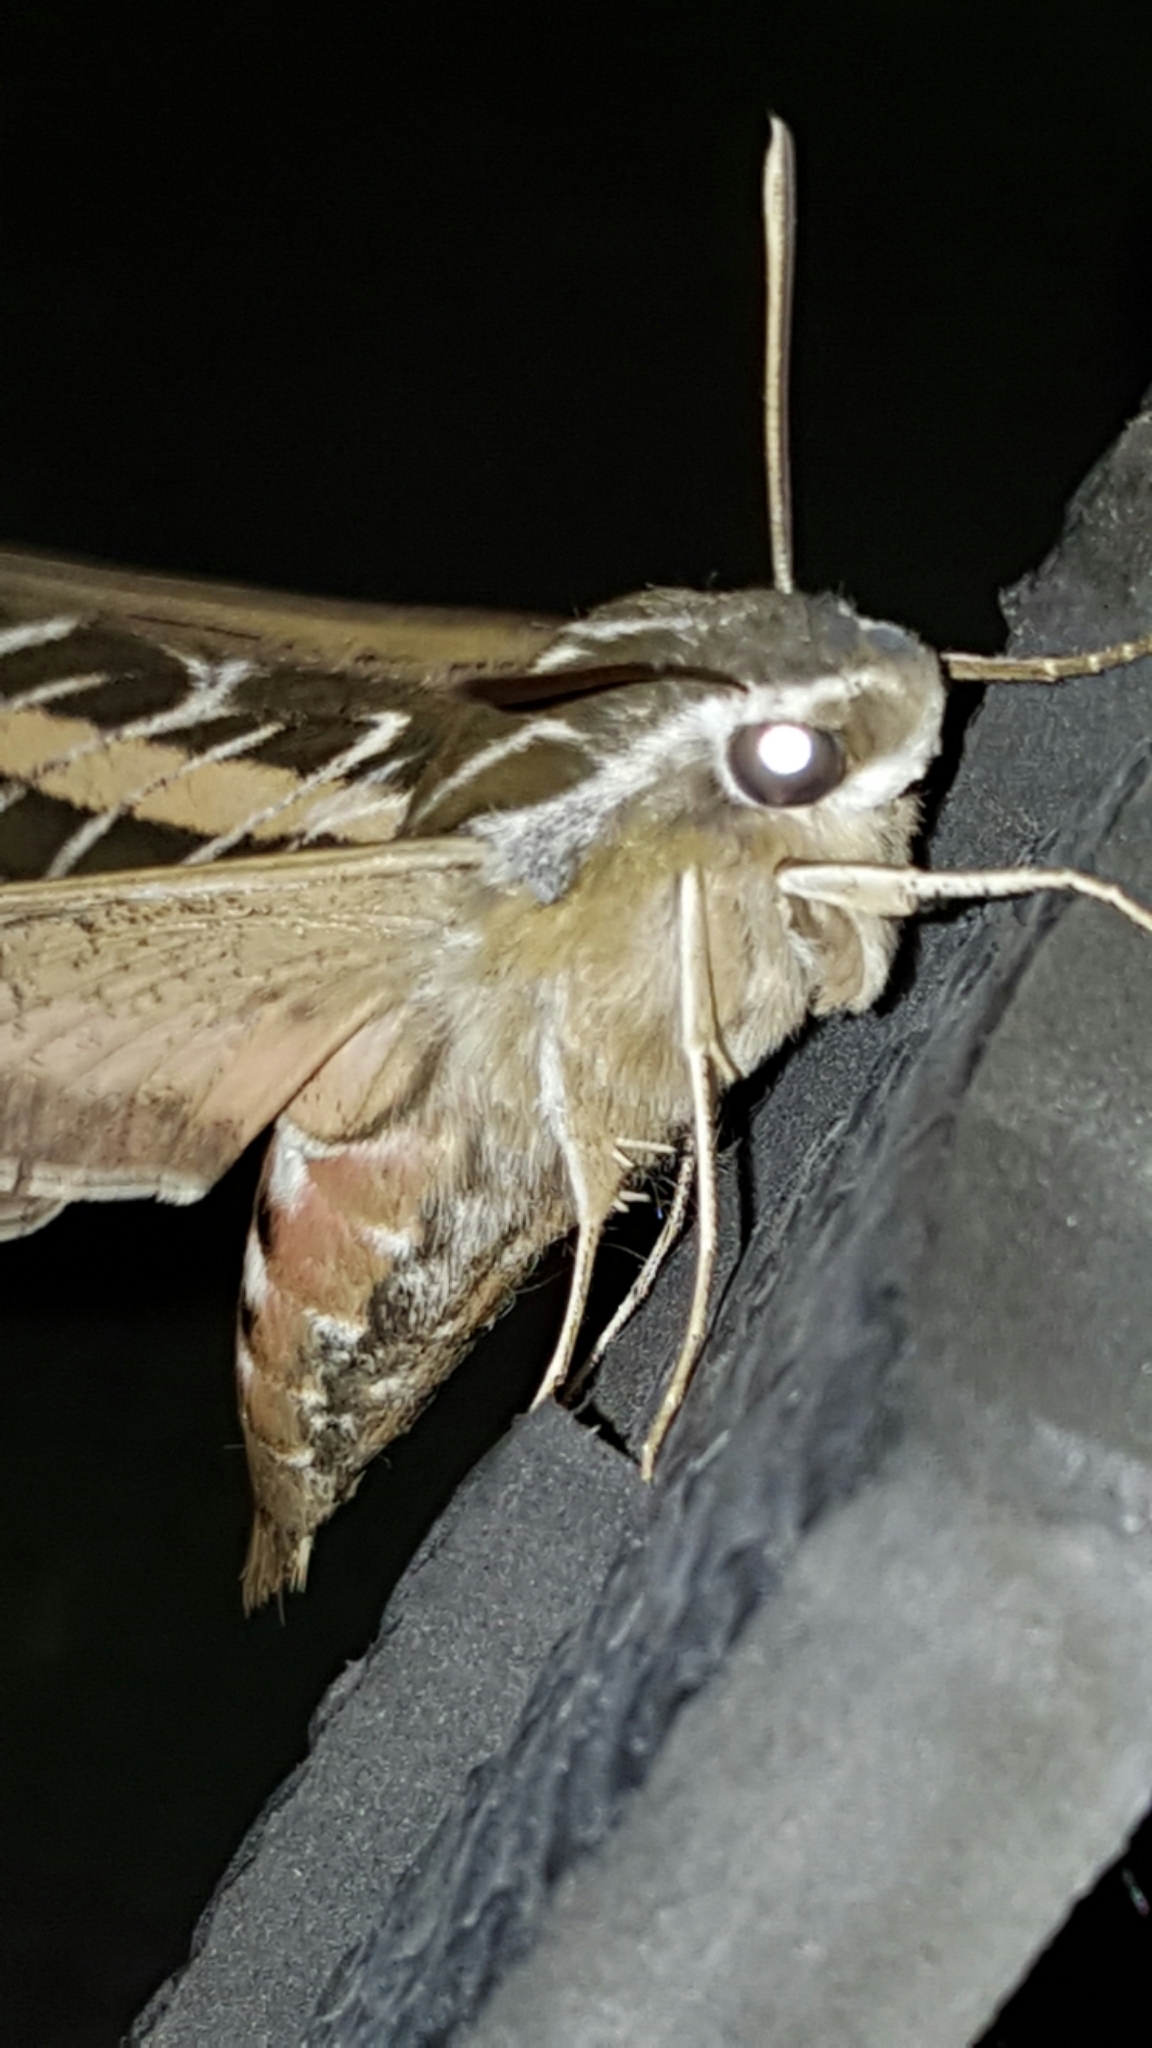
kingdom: Animalia
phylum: Arthropoda
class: Insecta
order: Lepidoptera
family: Sphingidae
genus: Hyles
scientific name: Hyles lineata
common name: White-lined sphinx
